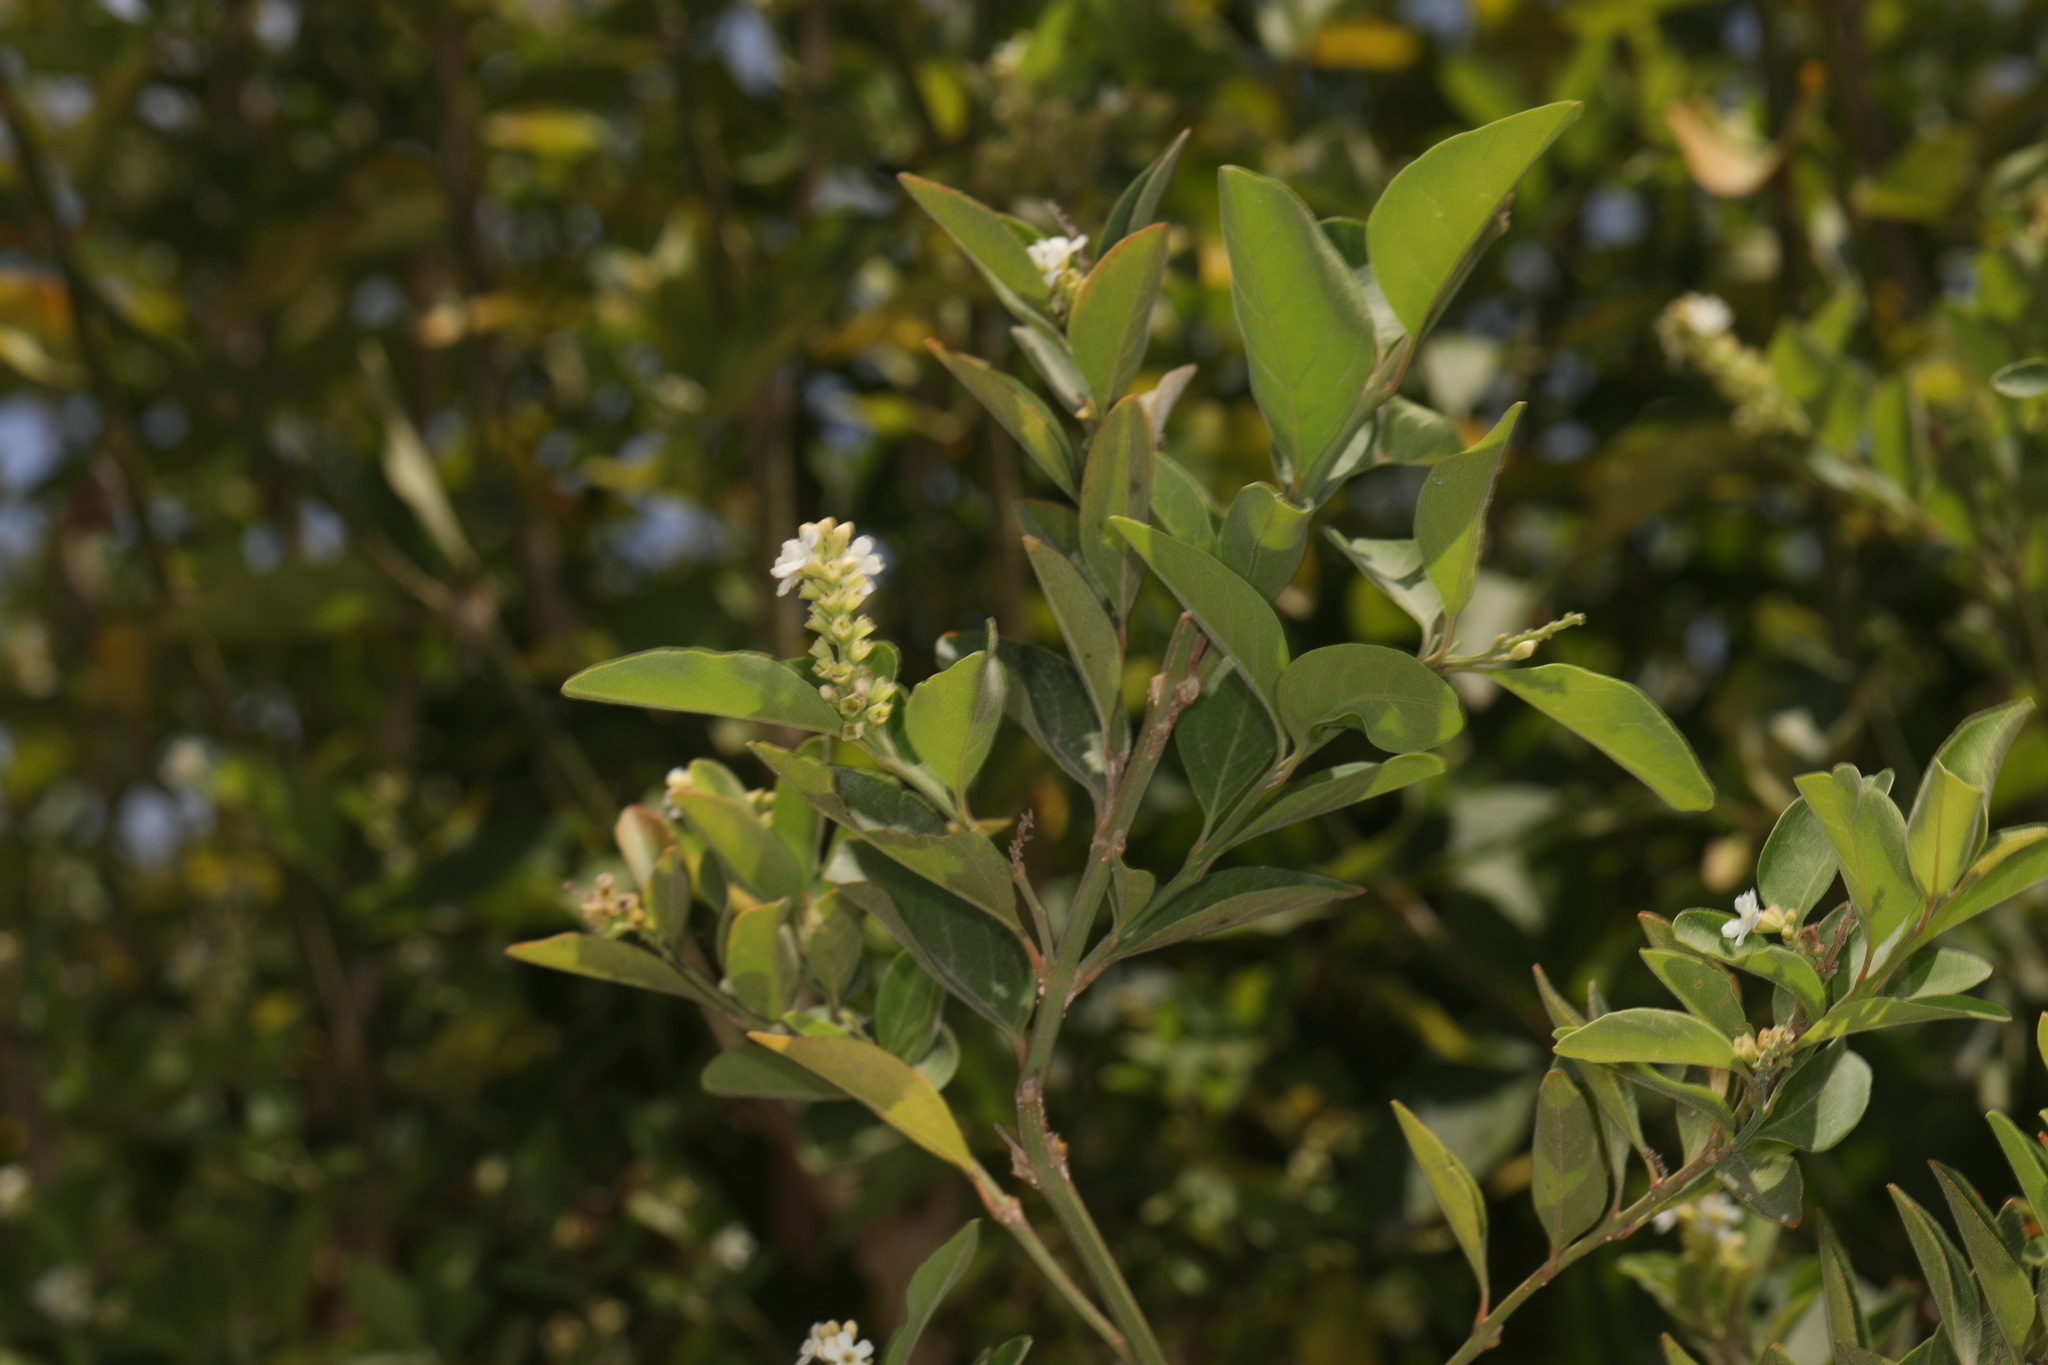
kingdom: Plantae
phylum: Tracheophyta
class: Magnoliopsida
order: Lamiales
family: Verbenaceae
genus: Citharexylum
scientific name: Citharexylum berlandieri
